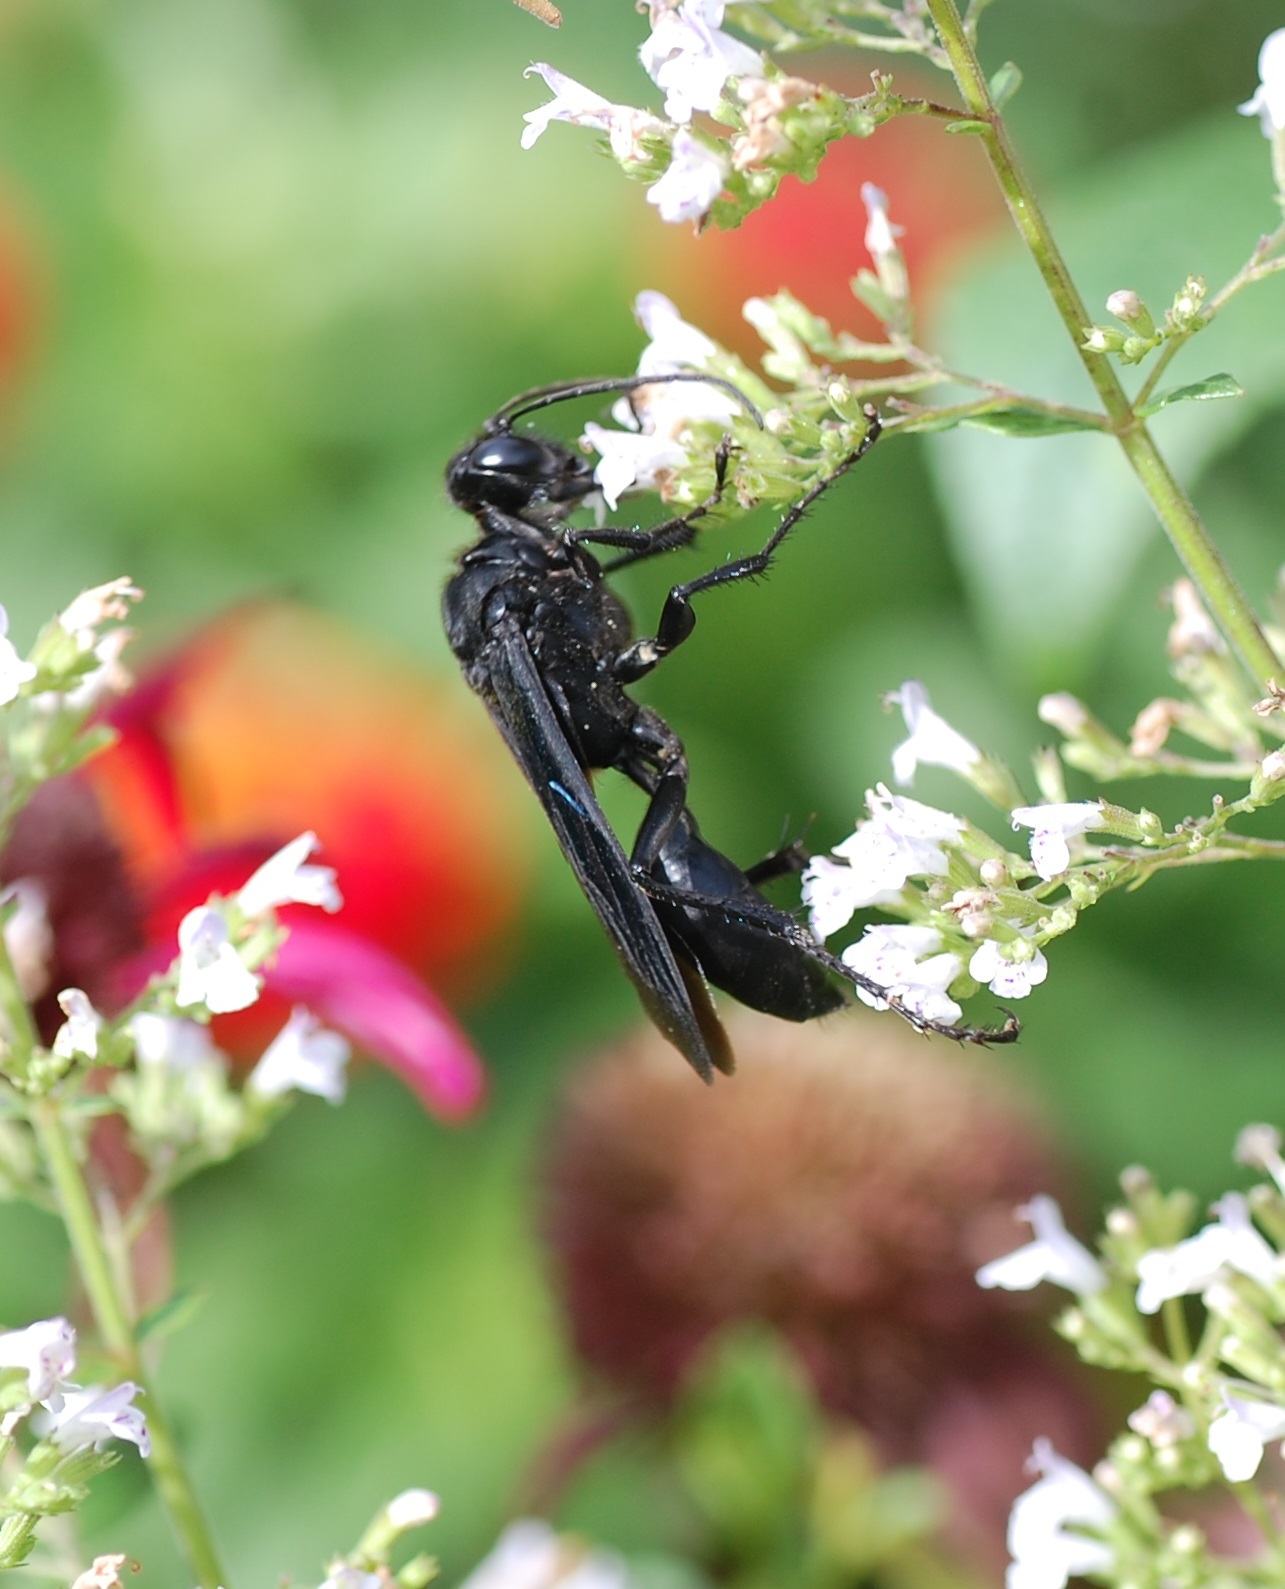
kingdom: Animalia
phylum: Arthropoda
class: Insecta
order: Hymenoptera
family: Sphecidae
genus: Sphex
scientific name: Sphex pensylvanicus
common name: Great black digger wasp
